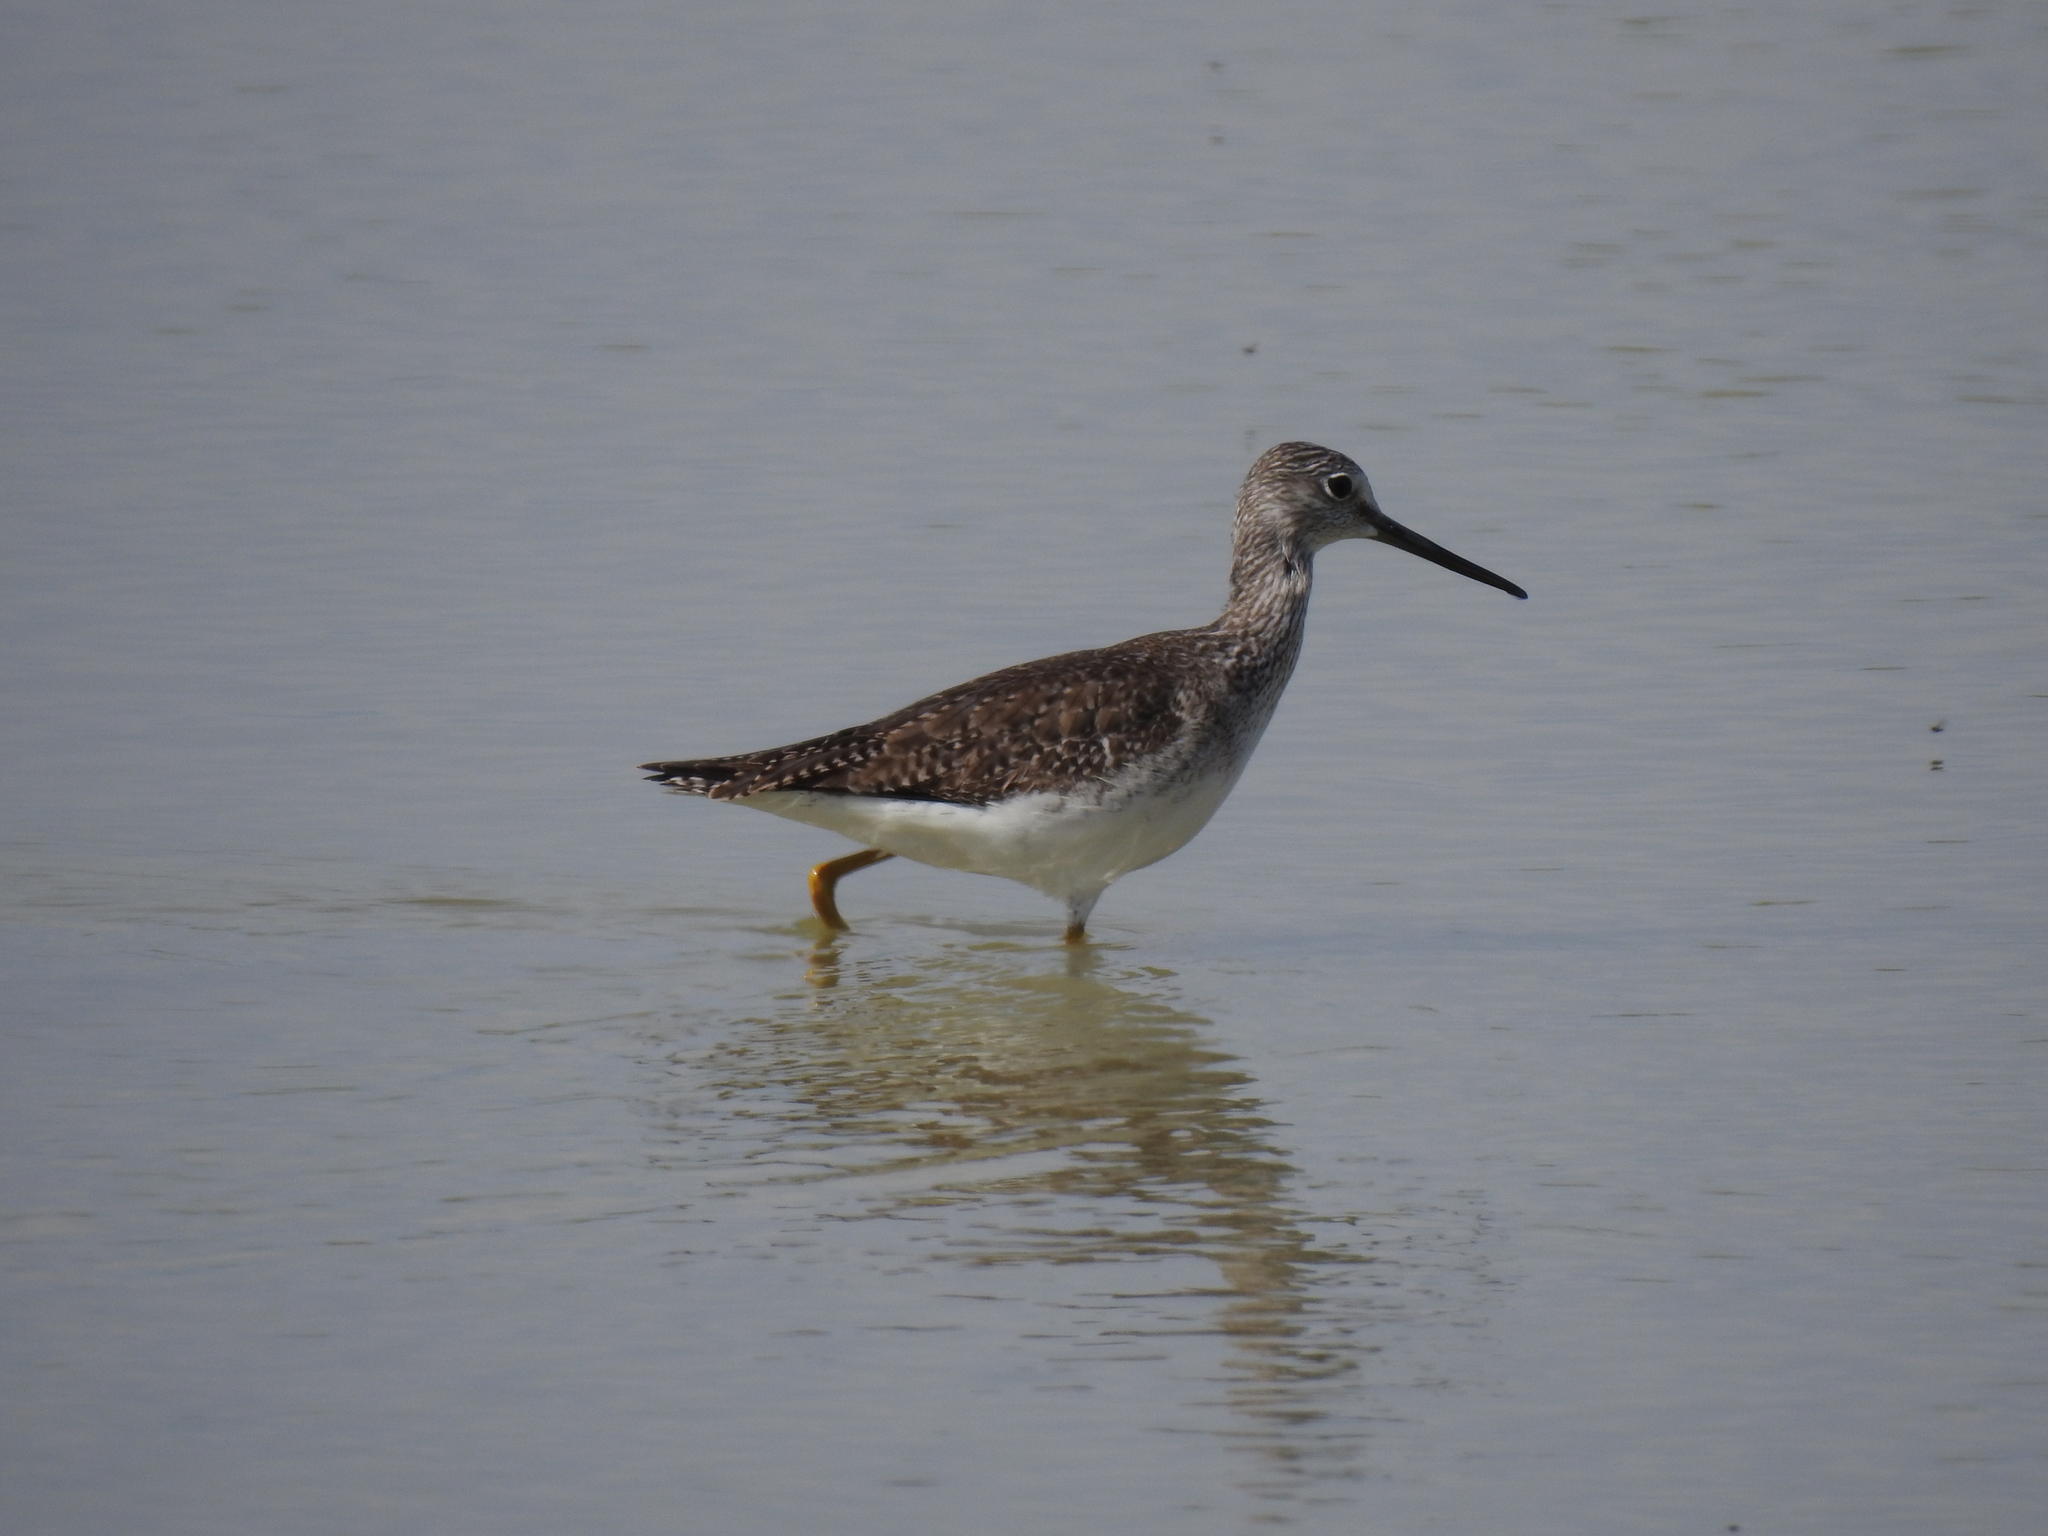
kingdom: Animalia
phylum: Chordata
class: Aves
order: Charadriiformes
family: Scolopacidae
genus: Tringa
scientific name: Tringa melanoleuca
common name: Greater yellowlegs
